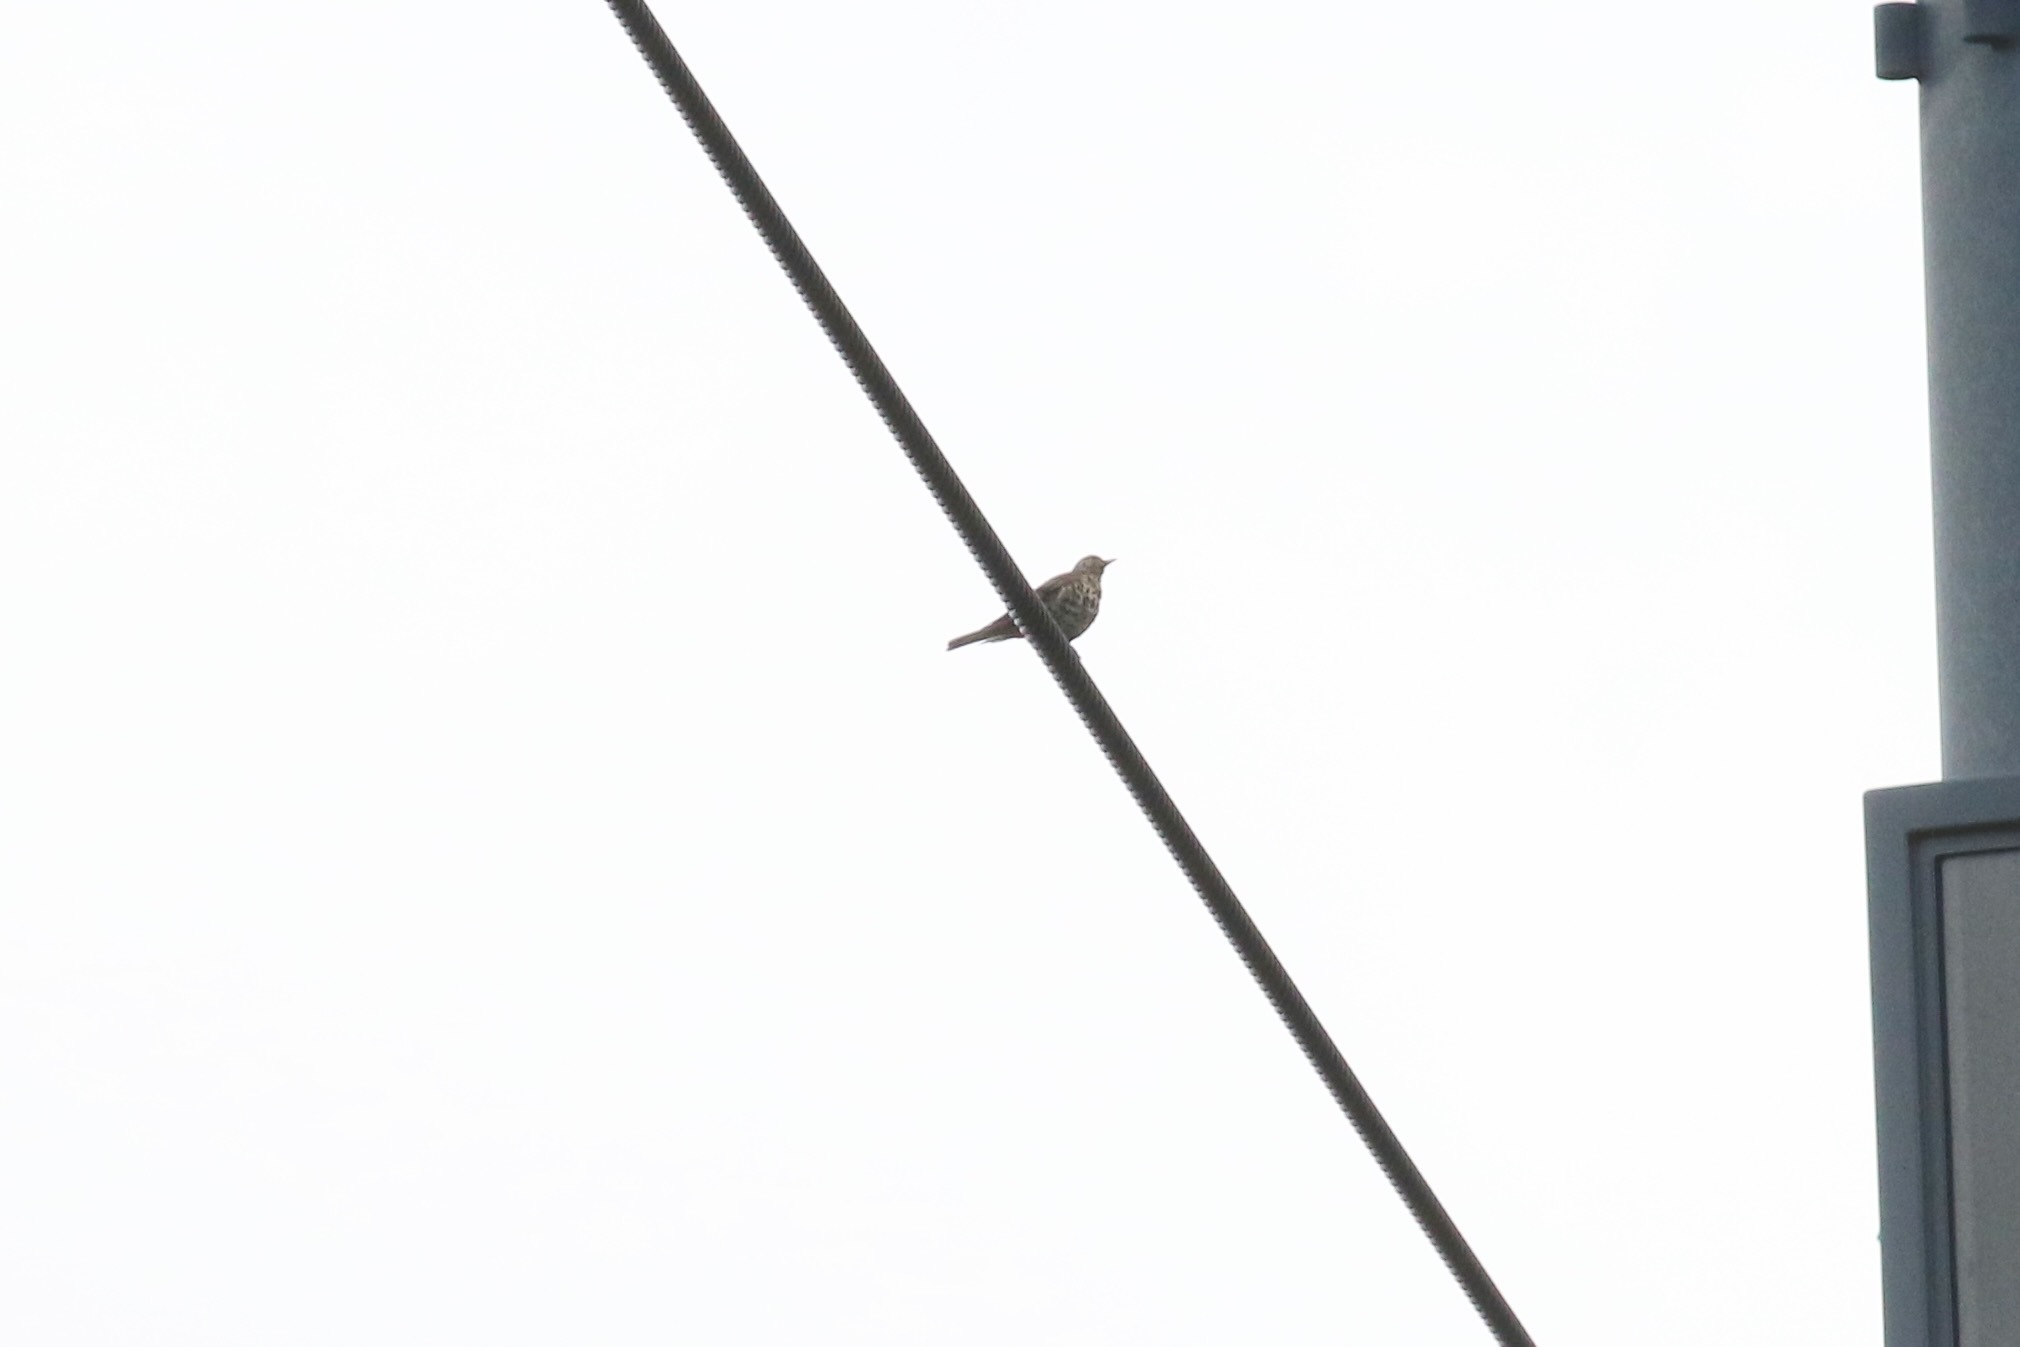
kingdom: Animalia
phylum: Chordata
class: Aves
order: Passeriformes
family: Turdidae
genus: Turdus
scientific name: Turdus viscivorus
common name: Mistle thrush
